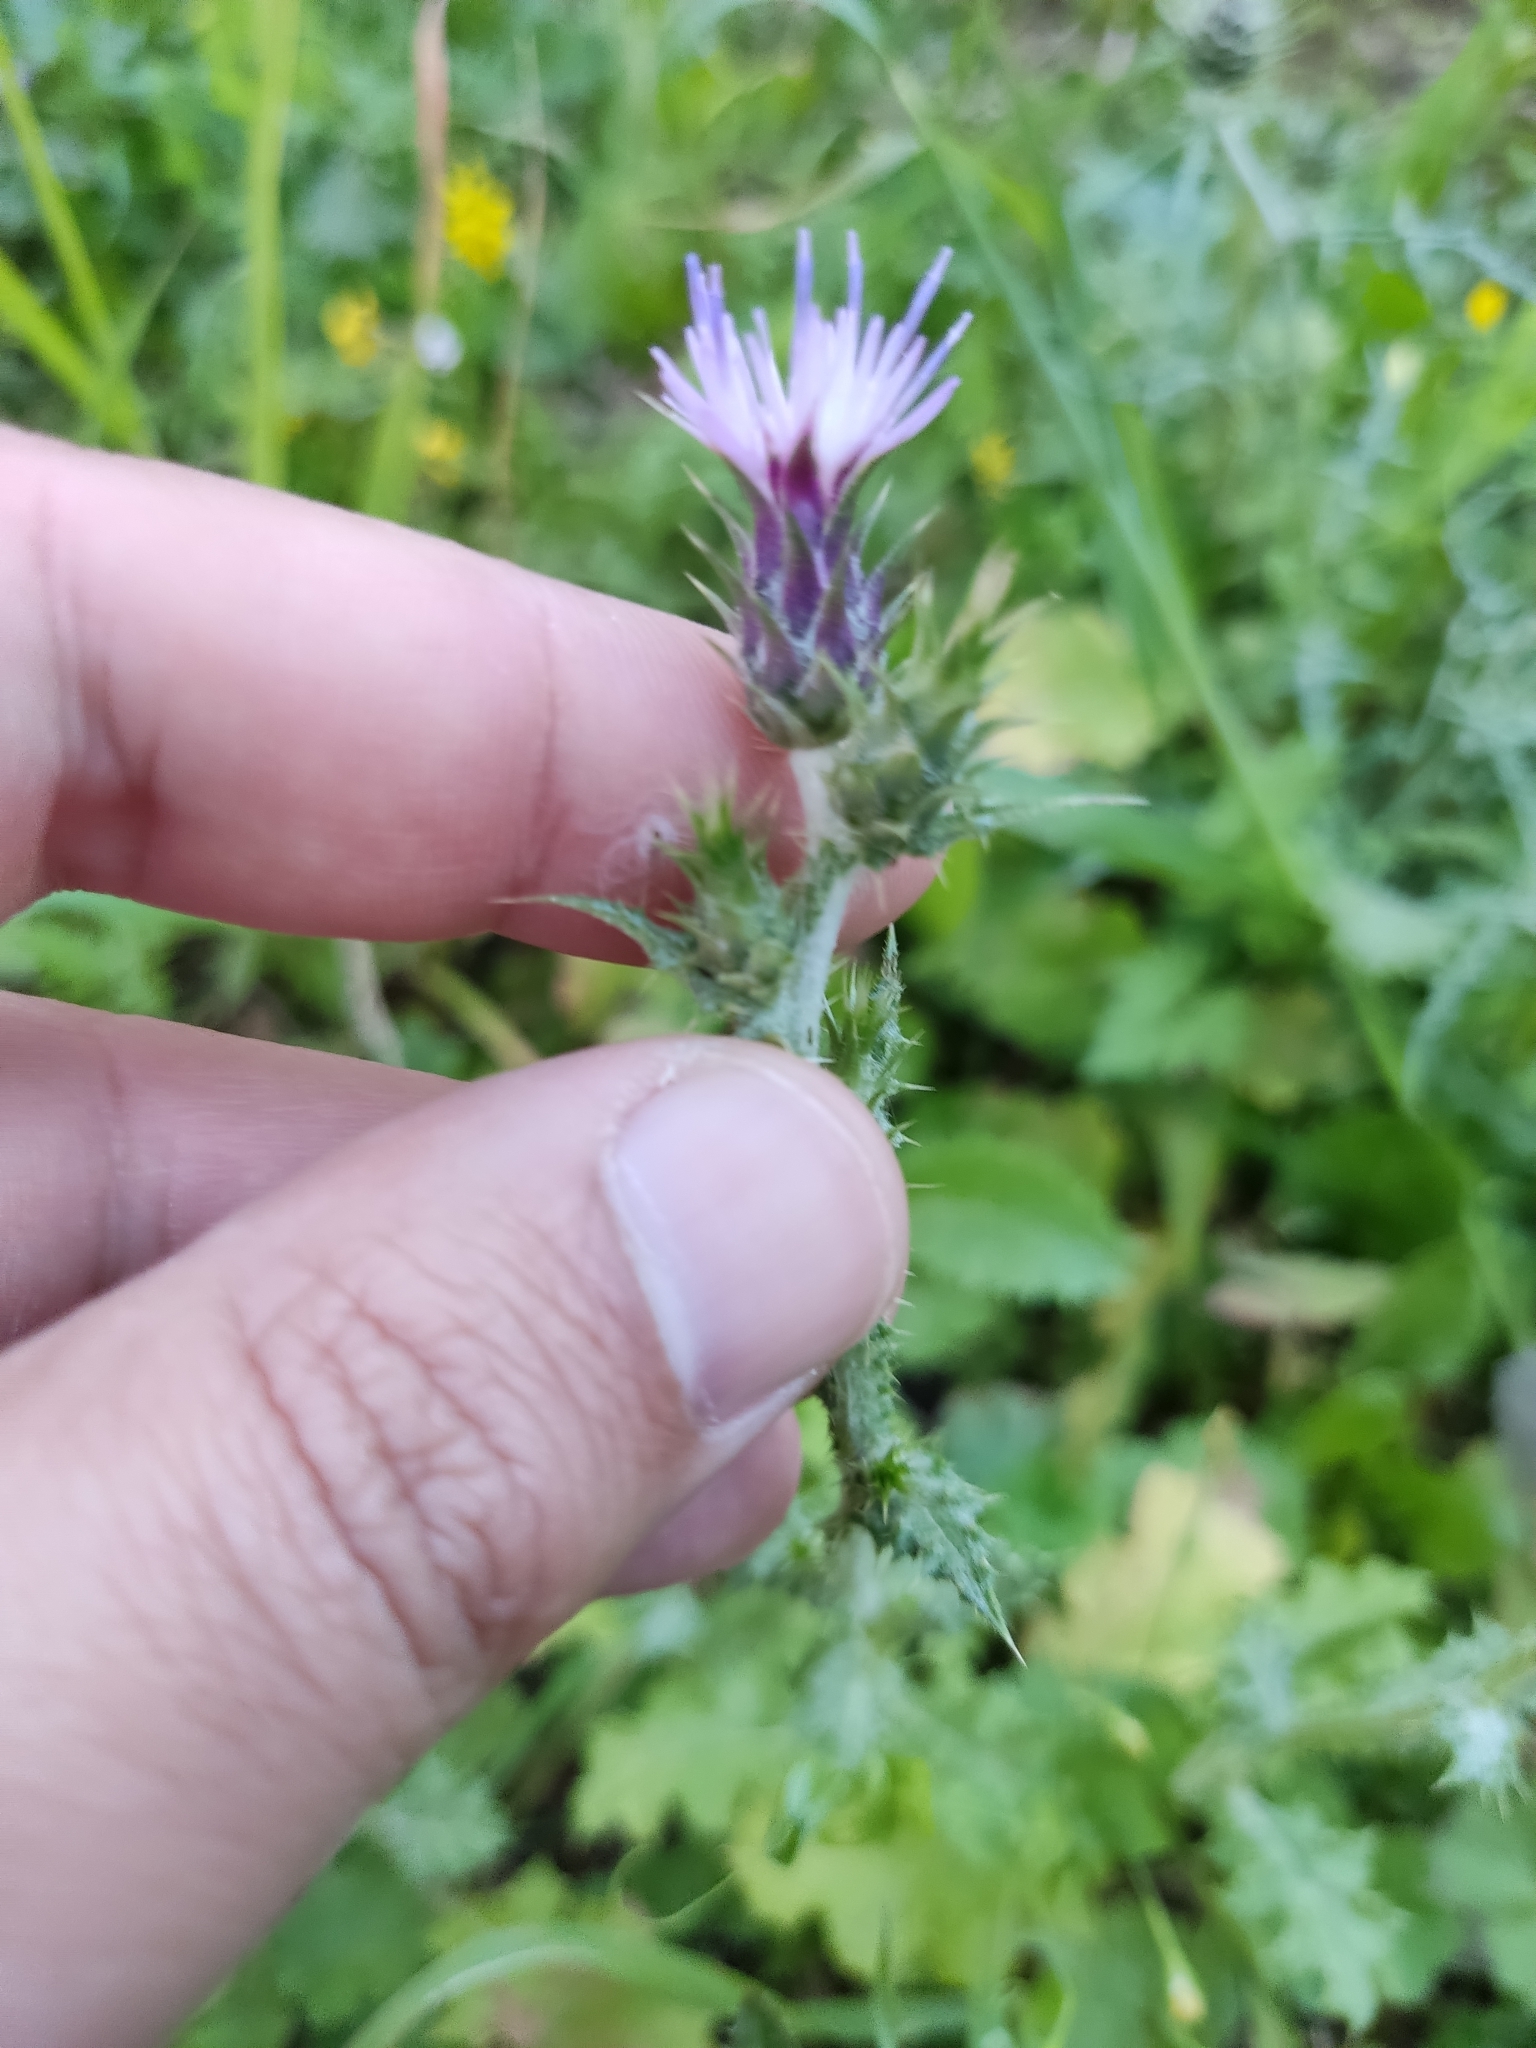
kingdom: Plantae
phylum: Tracheophyta
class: Magnoliopsida
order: Asterales
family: Asteraceae
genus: Carduus
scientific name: Carduus pycnocephalus
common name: Plymouth thistle
